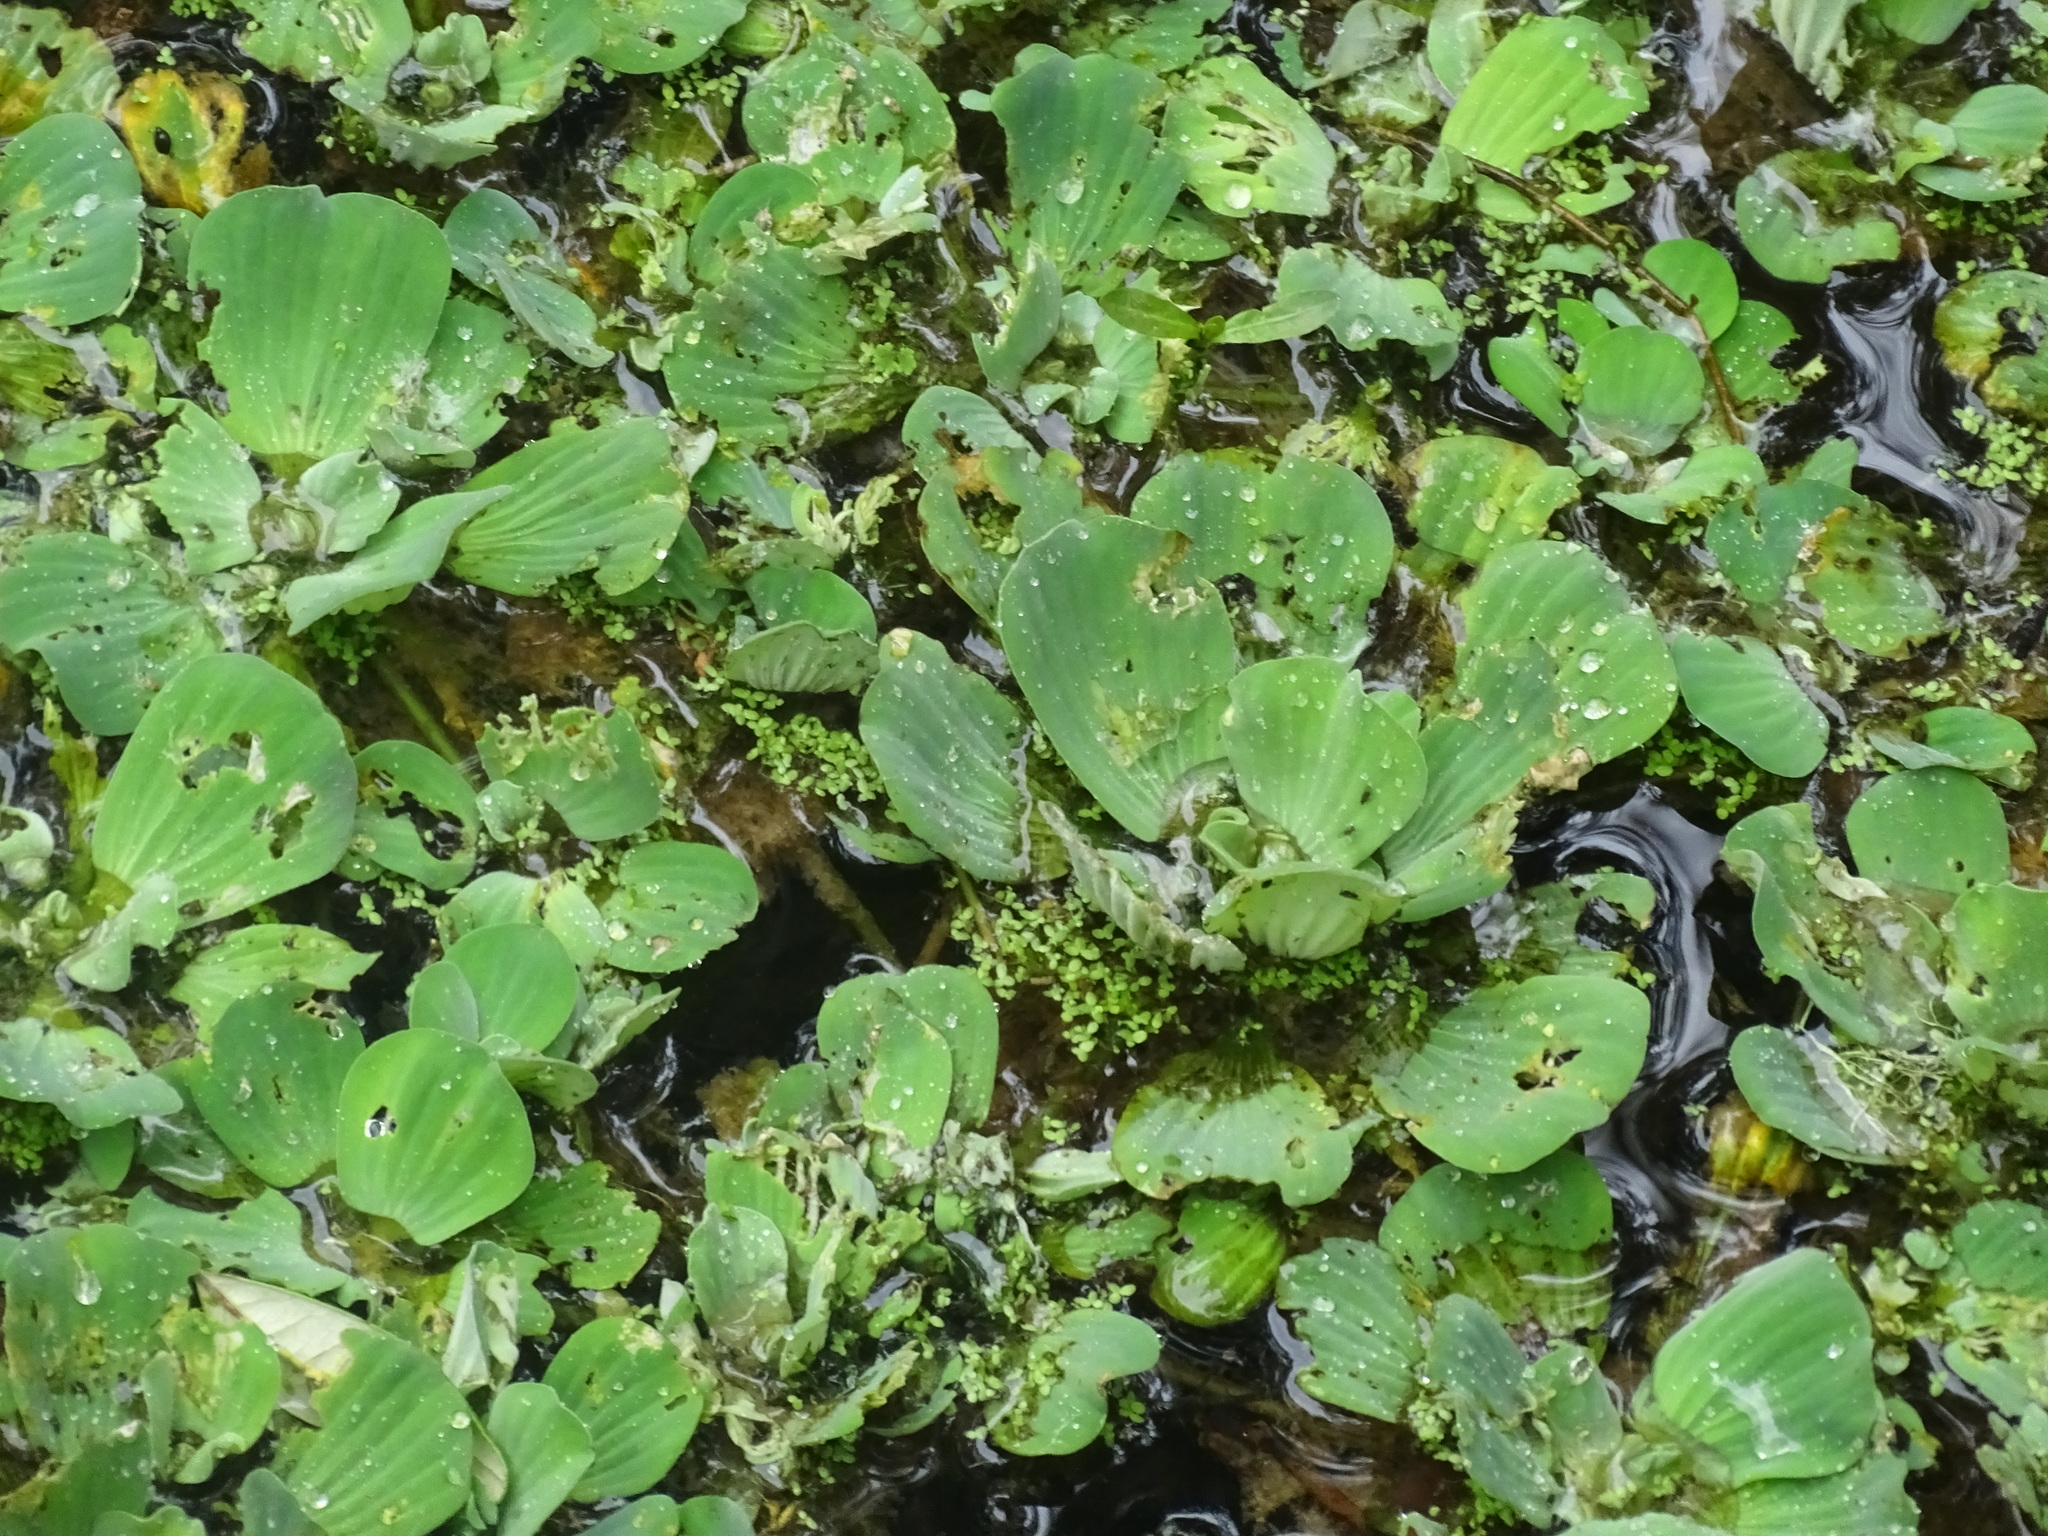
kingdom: Plantae
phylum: Tracheophyta
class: Liliopsida
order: Alismatales
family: Araceae
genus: Pistia
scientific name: Pistia stratiotes
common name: Water lettuce
